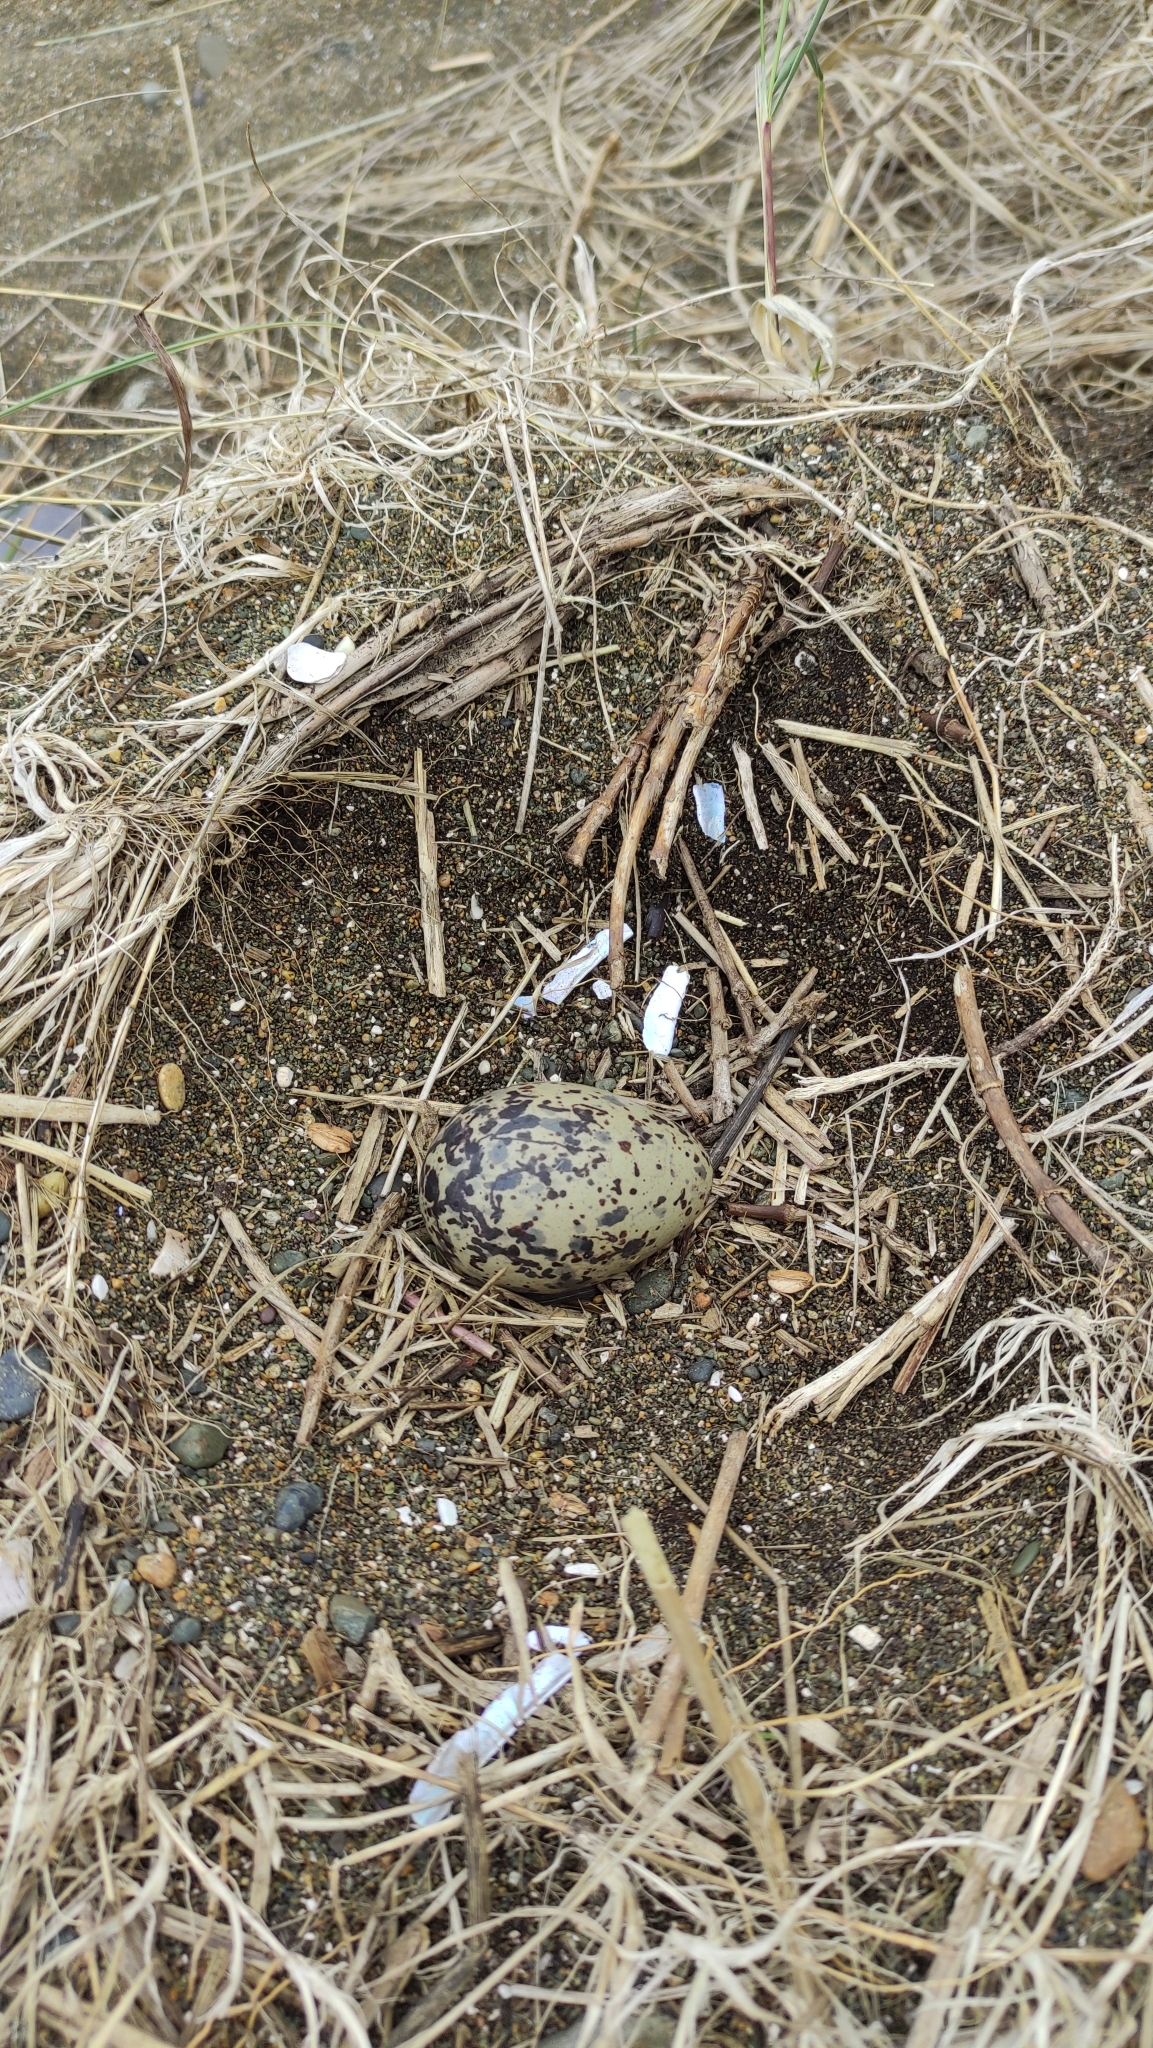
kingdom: Animalia
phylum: Chordata
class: Aves
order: Charadriiformes
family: Haematopodidae
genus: Haematopus
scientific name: Haematopus unicolor
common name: Variable oystercatcher
